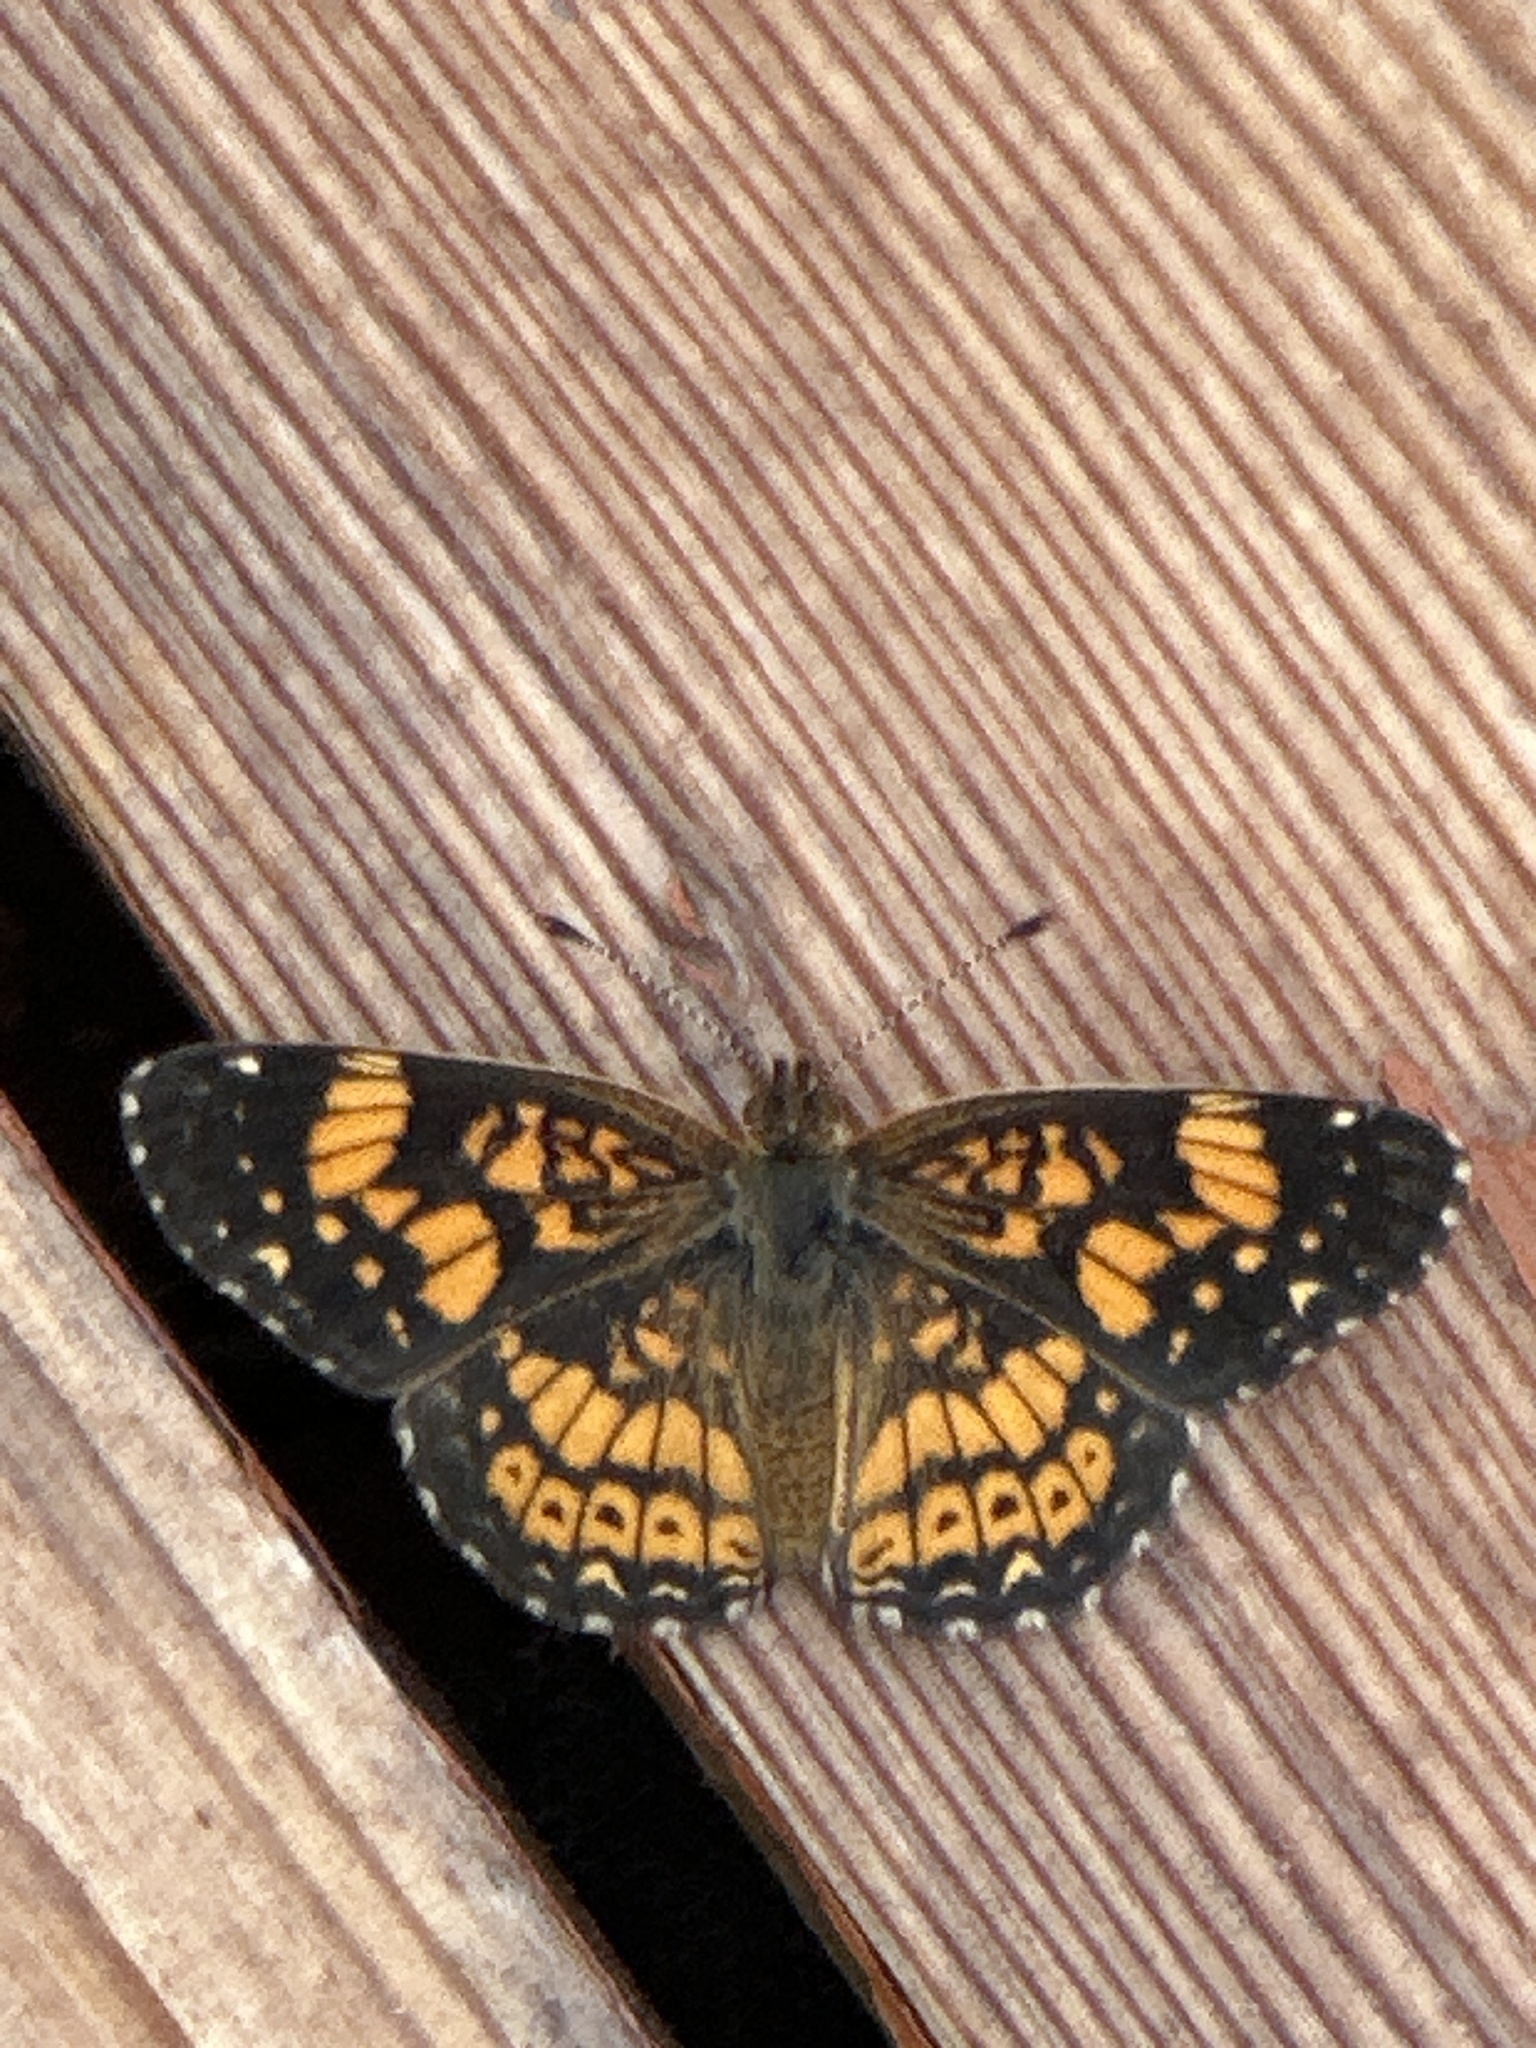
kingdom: Animalia
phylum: Arthropoda
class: Insecta
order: Lepidoptera
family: Nymphalidae
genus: Chlosyne
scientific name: Chlosyne gorgone
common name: Gorgone checkerspot
